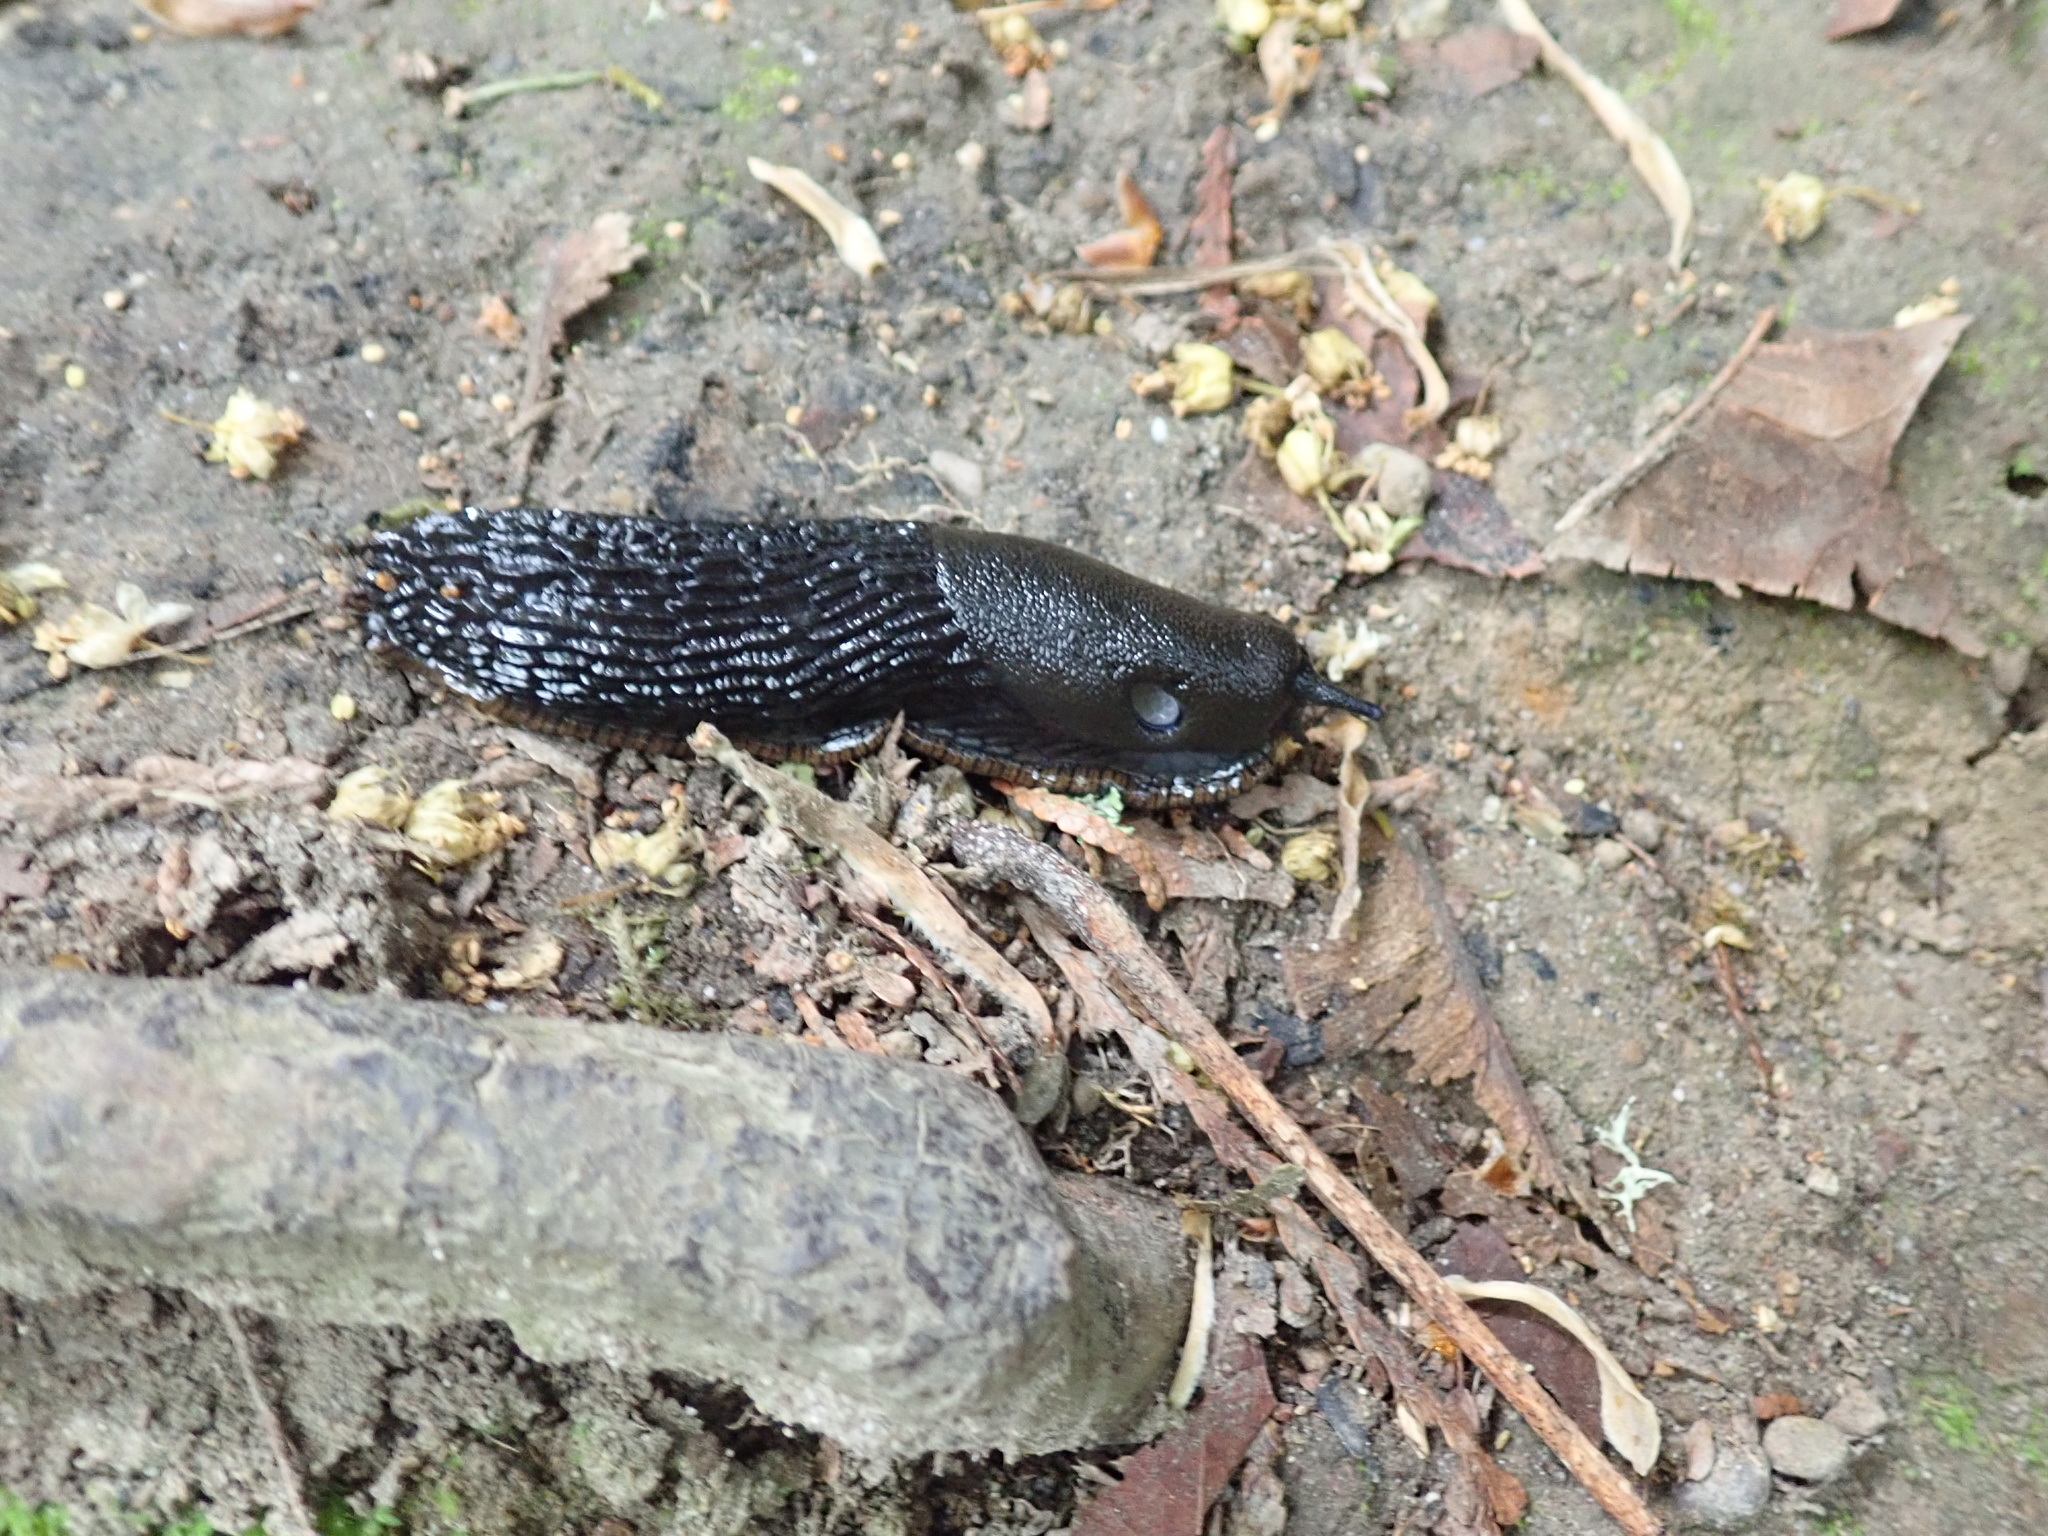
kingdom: Animalia
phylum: Mollusca
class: Gastropoda
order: Stylommatophora
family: Arionidae
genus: Arion
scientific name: Arion
